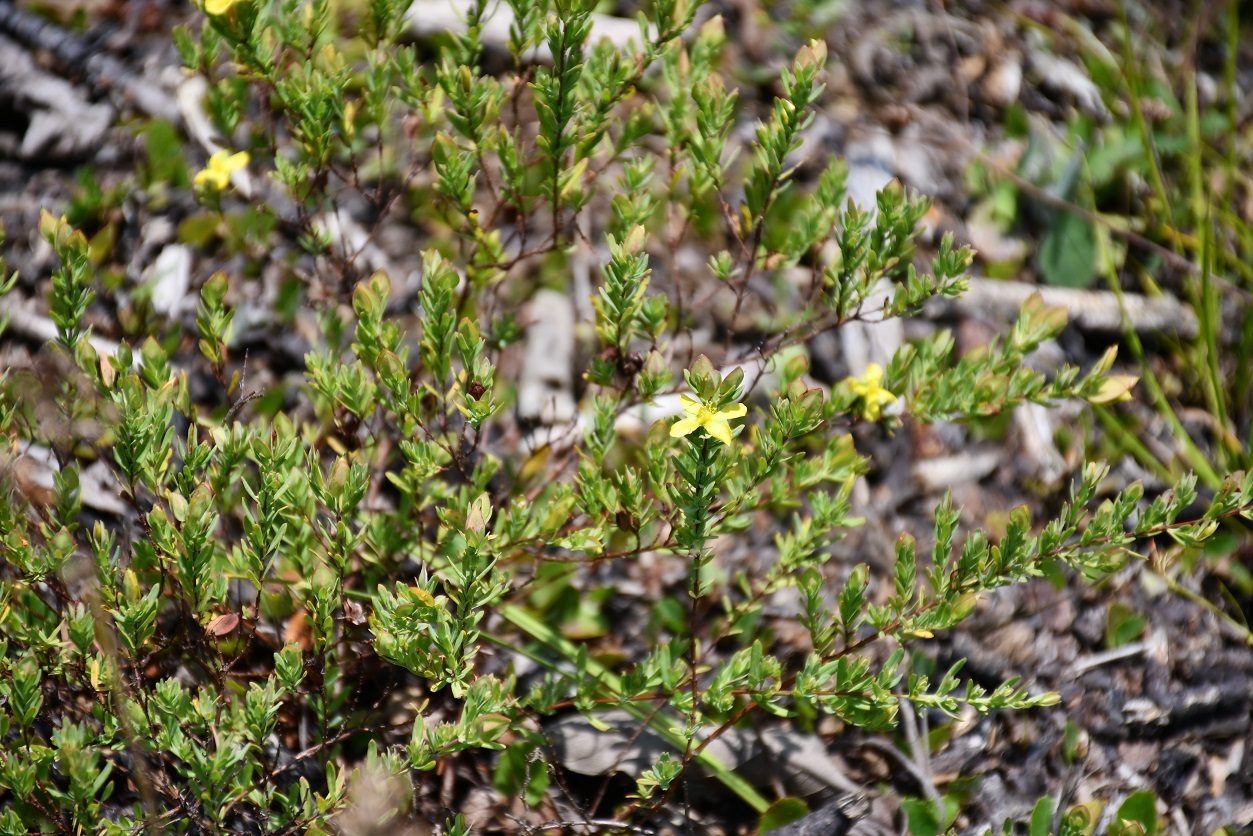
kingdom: Plantae
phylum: Tracheophyta
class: Magnoliopsida
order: Malpighiales
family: Hypericaceae
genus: Hypericum
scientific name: Hypericum hypericoides
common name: St. andrew's cross
